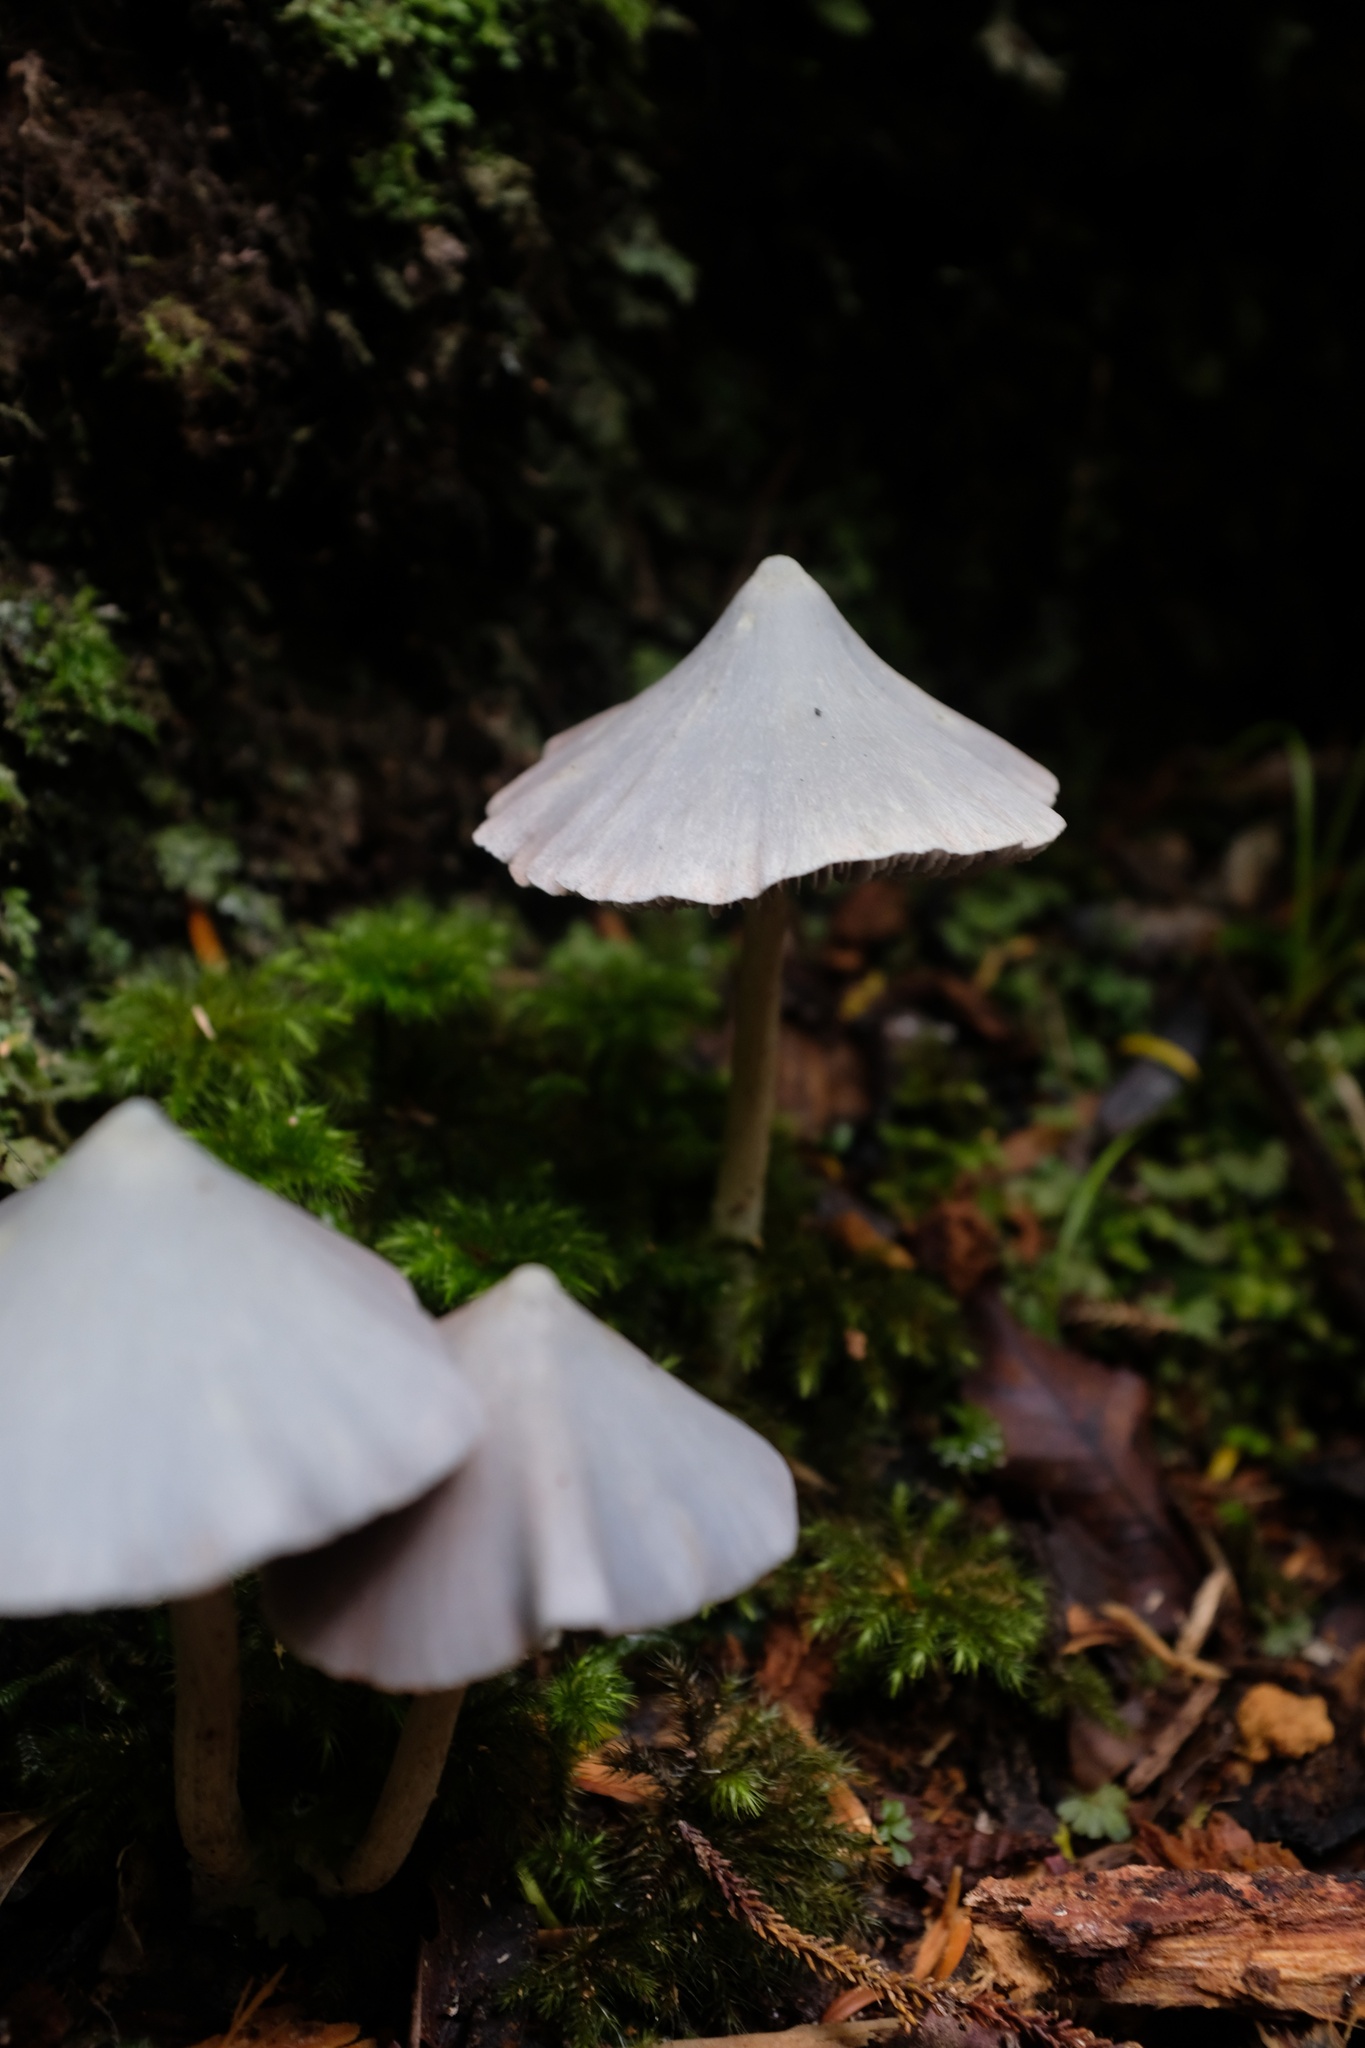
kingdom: Fungi
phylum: Basidiomycota
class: Agaricomycetes
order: Agaricales
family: Entolomataceae
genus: Entoloma
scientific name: Entoloma canoconicum
